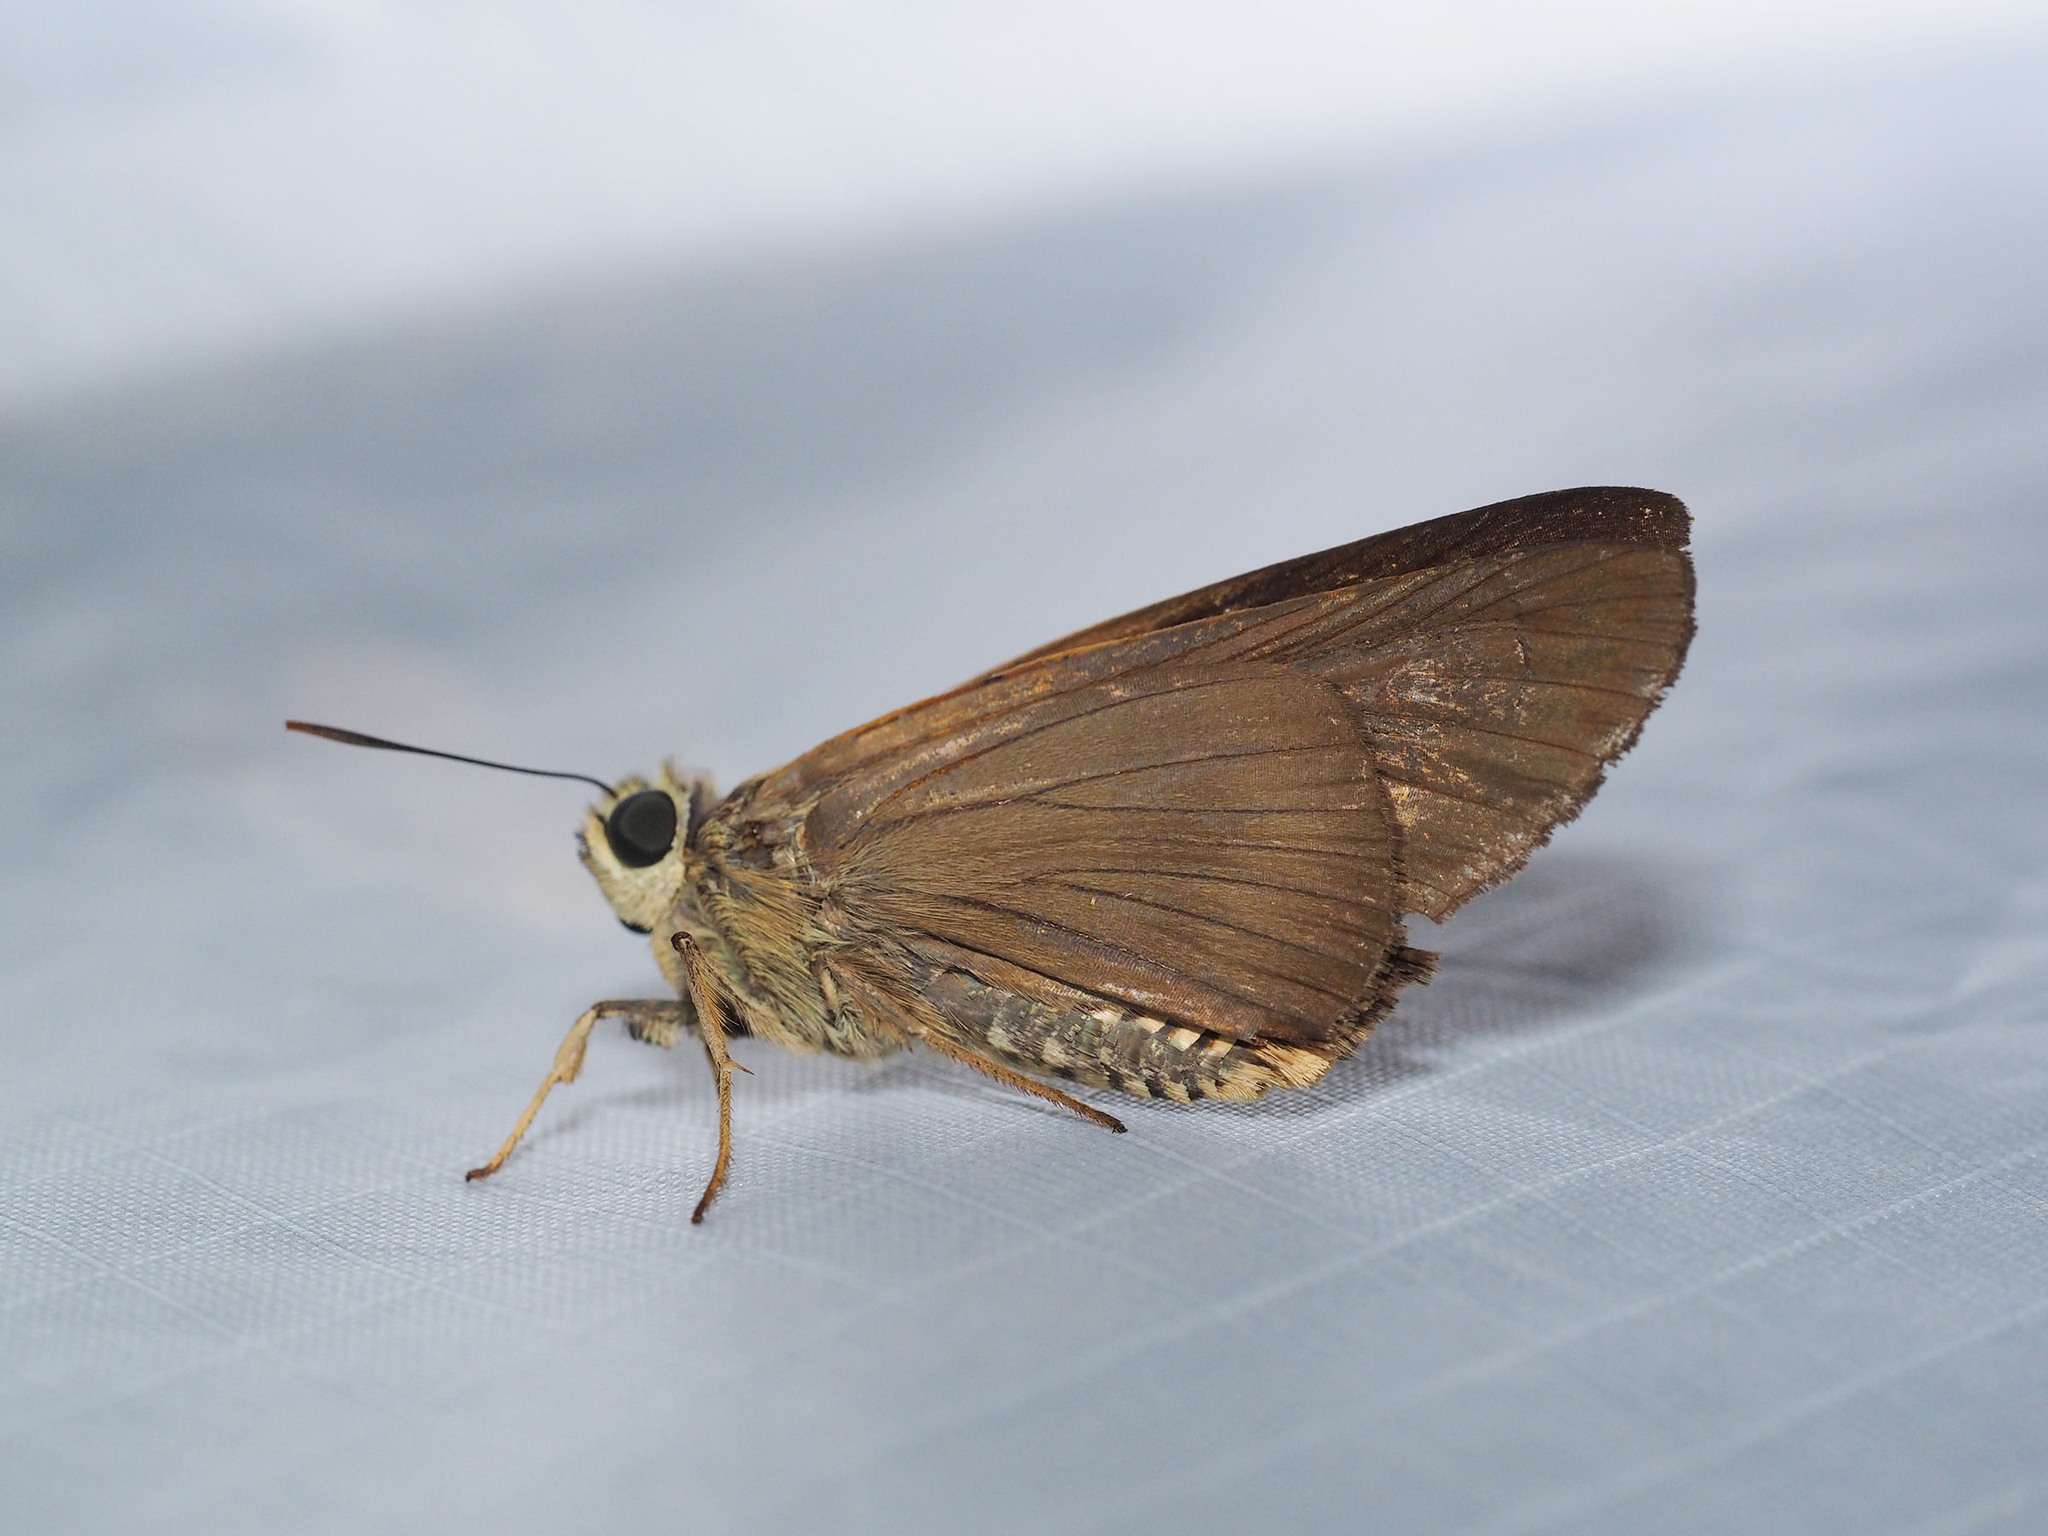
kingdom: Animalia
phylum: Arthropoda
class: Insecta
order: Lepidoptera
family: Hesperiidae
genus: Badamia
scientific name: Badamia exclamationis
